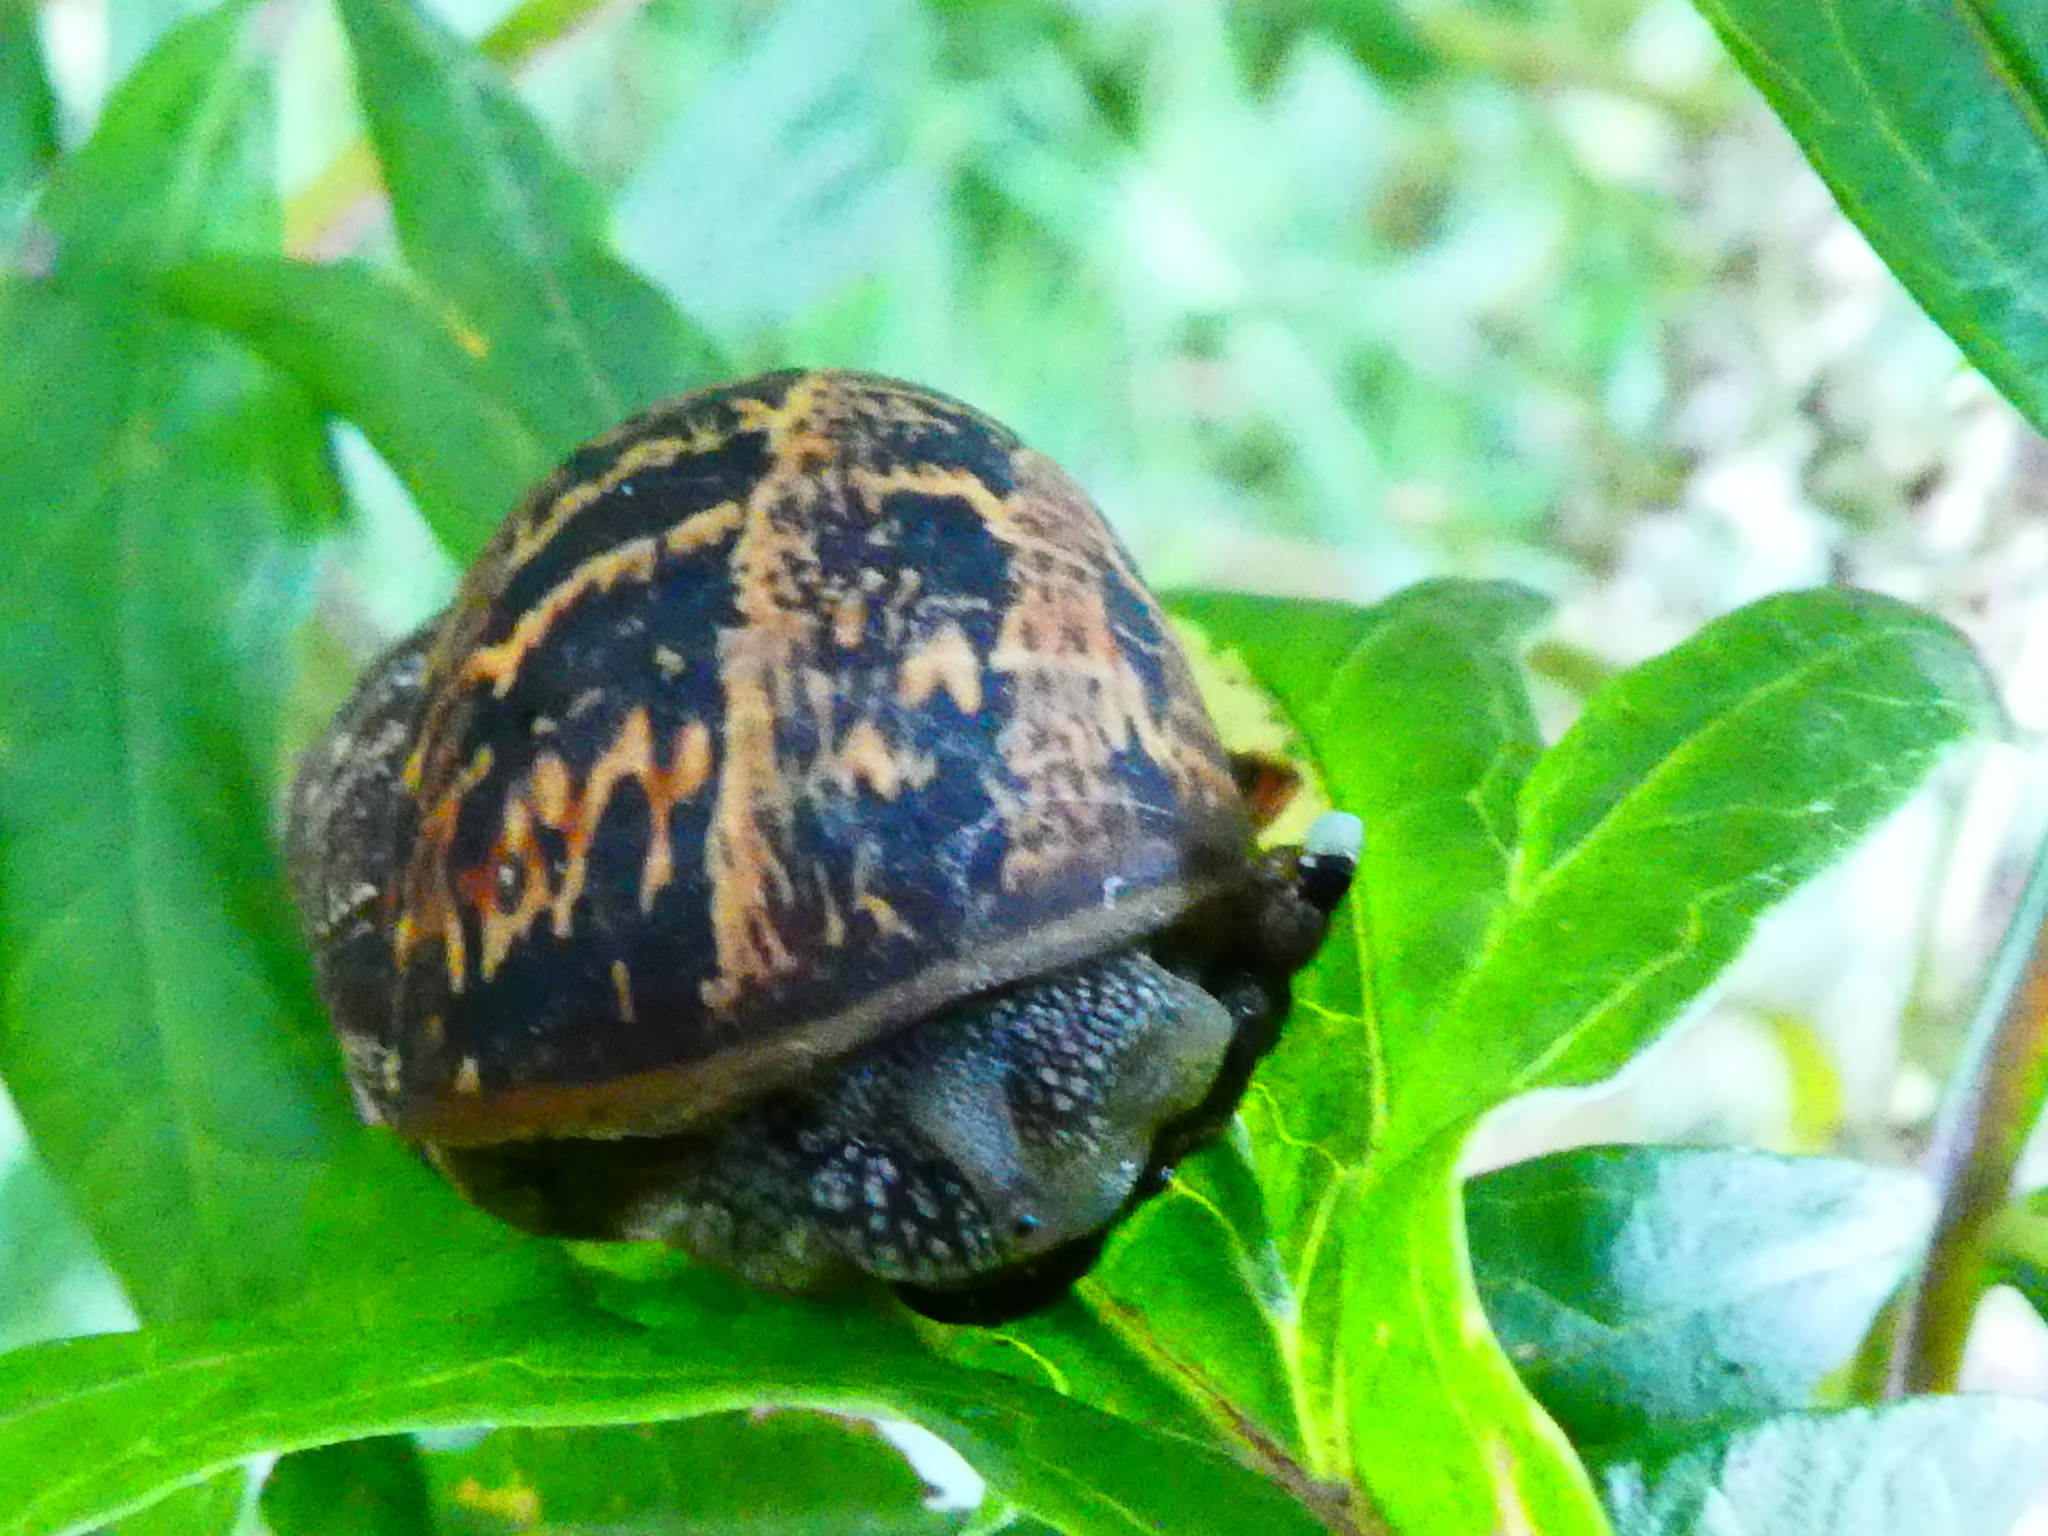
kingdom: Animalia
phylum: Mollusca
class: Gastropoda
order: Stylommatophora
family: Helicidae
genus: Cornu
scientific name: Cornu aspersum
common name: Brown garden snail
